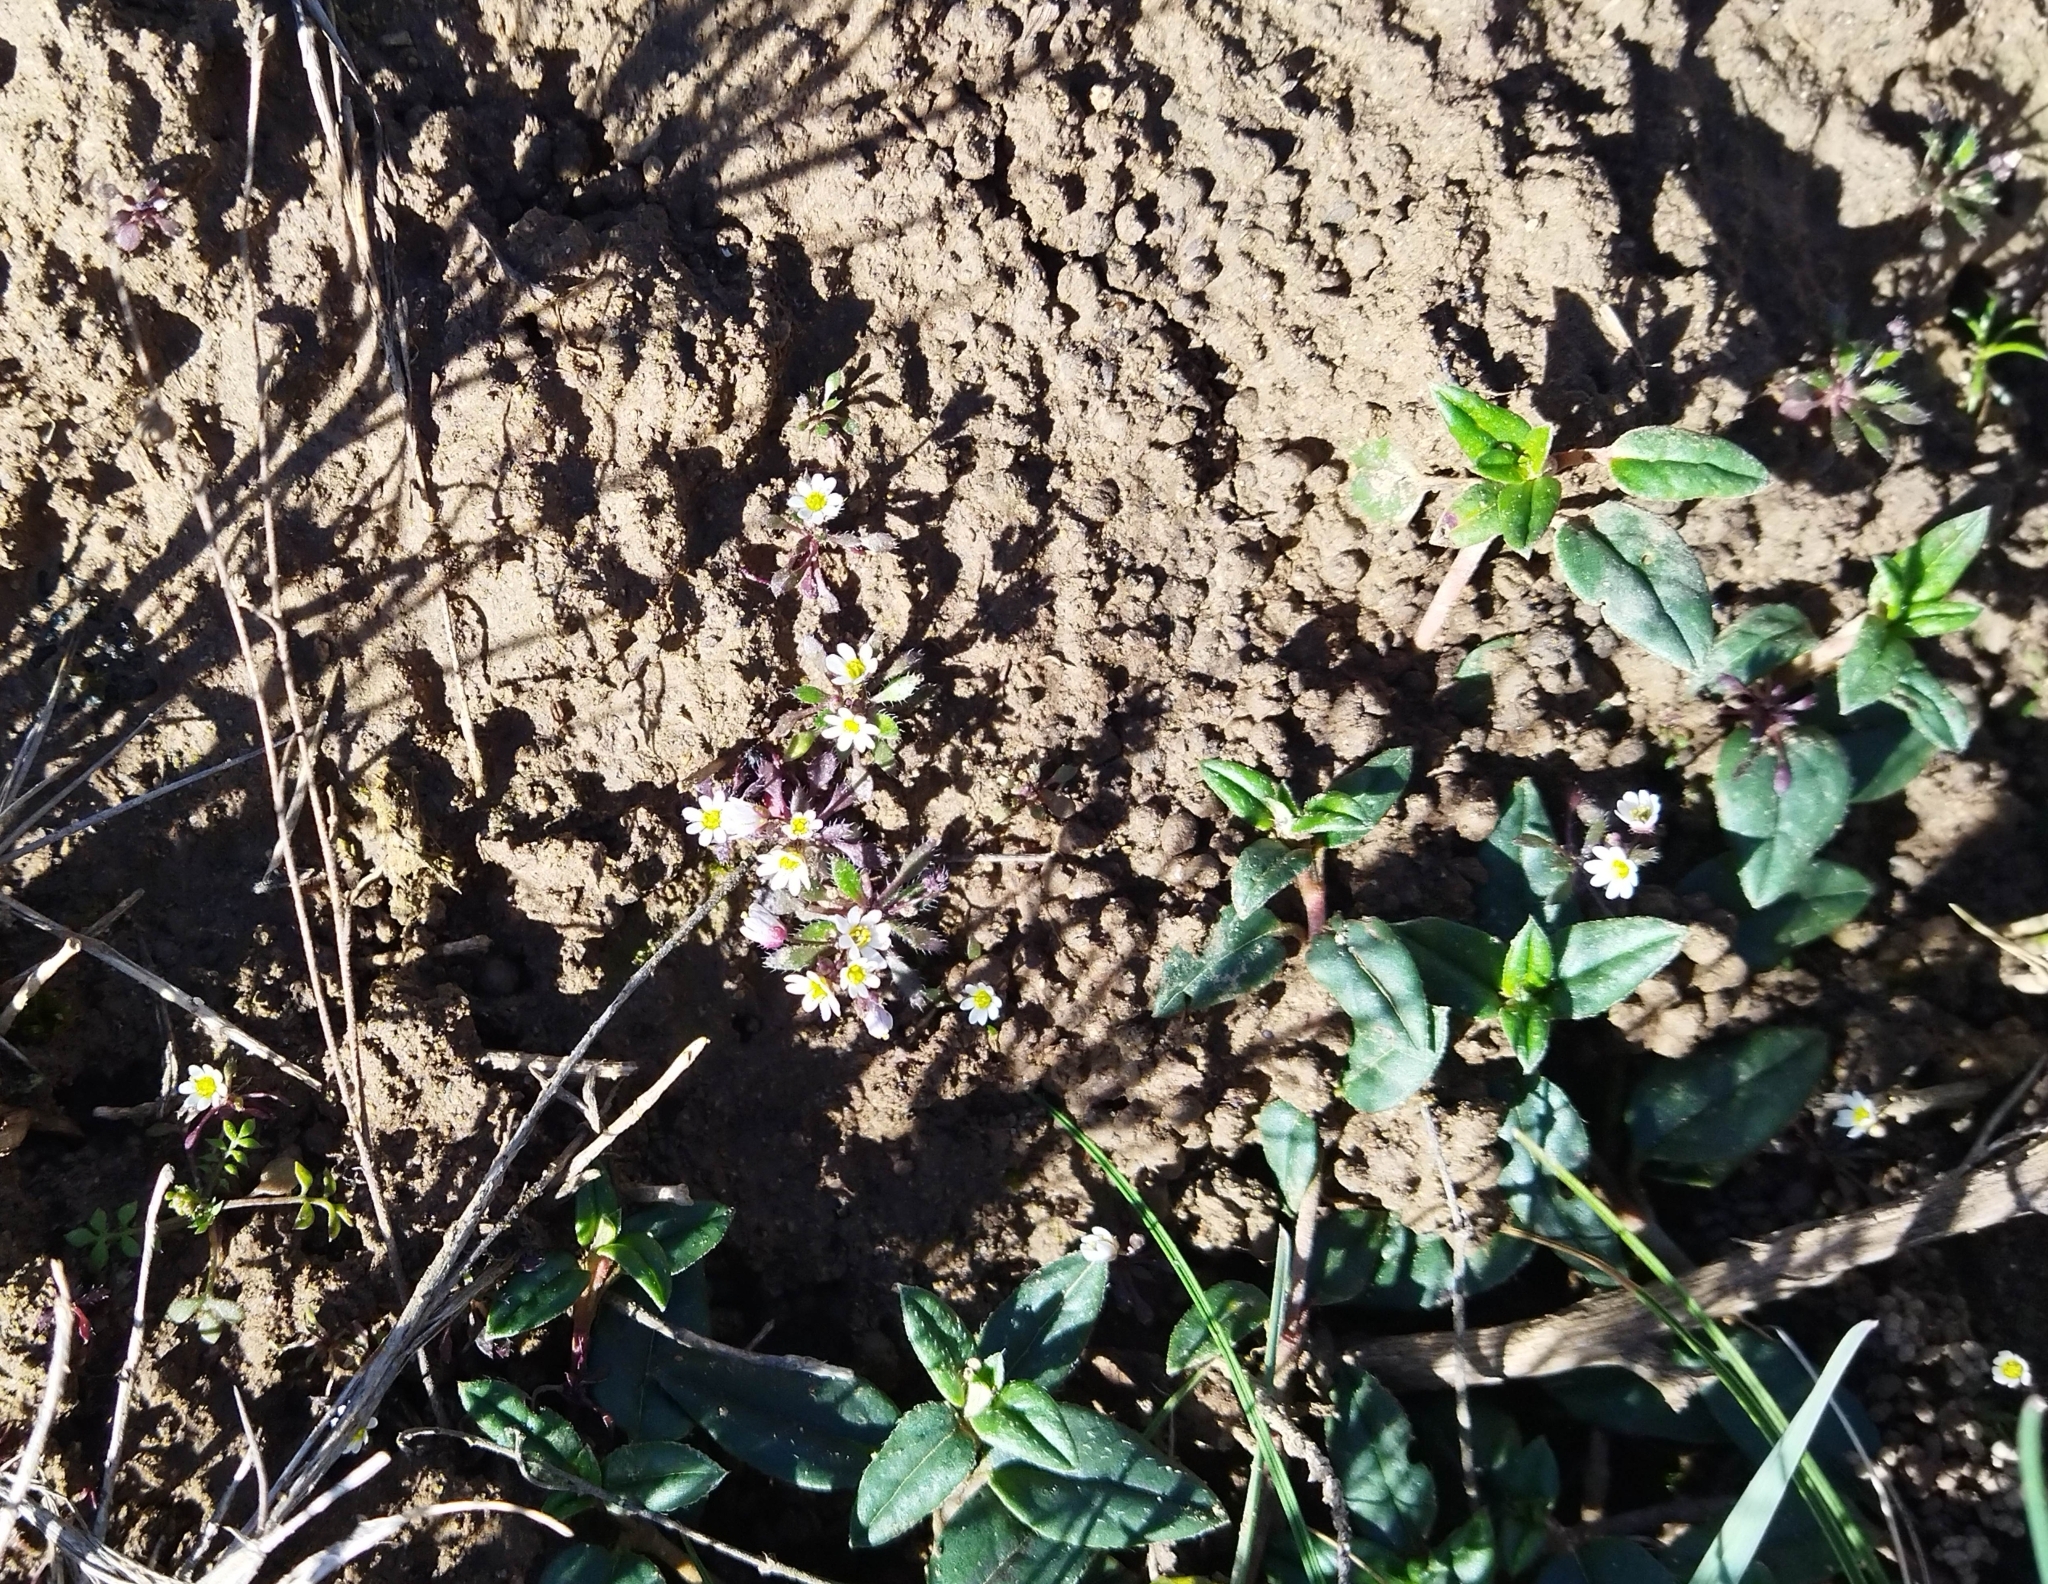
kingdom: Plantae
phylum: Tracheophyta
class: Magnoliopsida
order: Brassicales
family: Brassicaceae
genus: Draba
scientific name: Draba verna
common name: Spring draba
